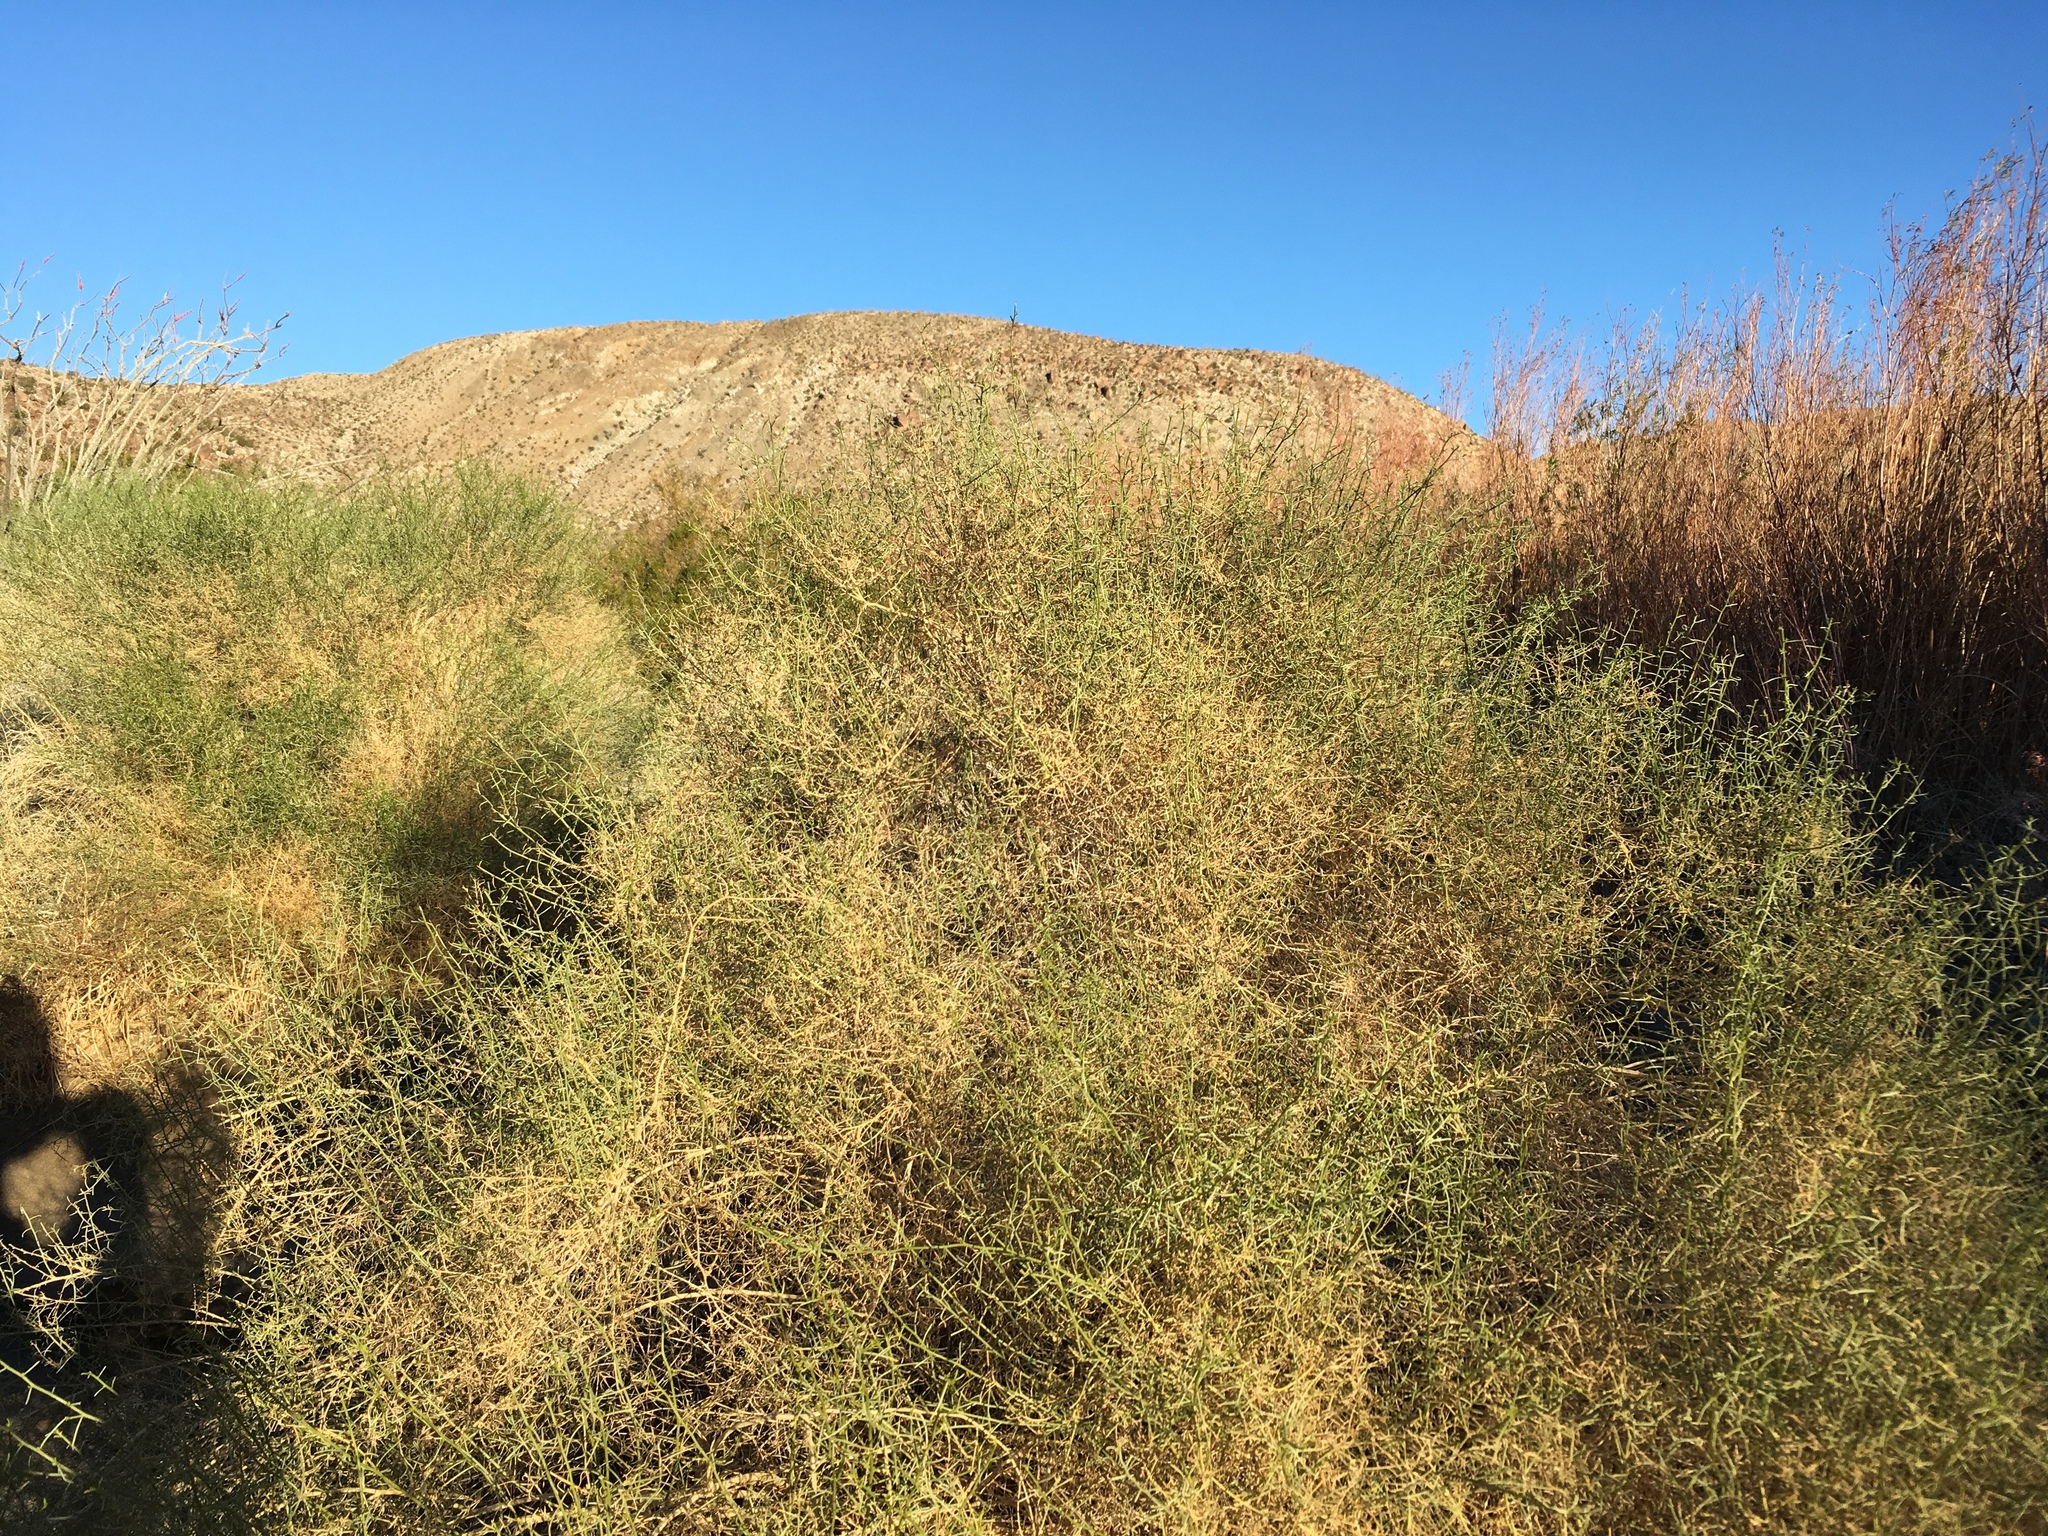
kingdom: Plantae
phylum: Tracheophyta
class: Magnoliopsida
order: Asterales
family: Asteraceae
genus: Ambrosia
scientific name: Ambrosia salsola
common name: Burrobrush
